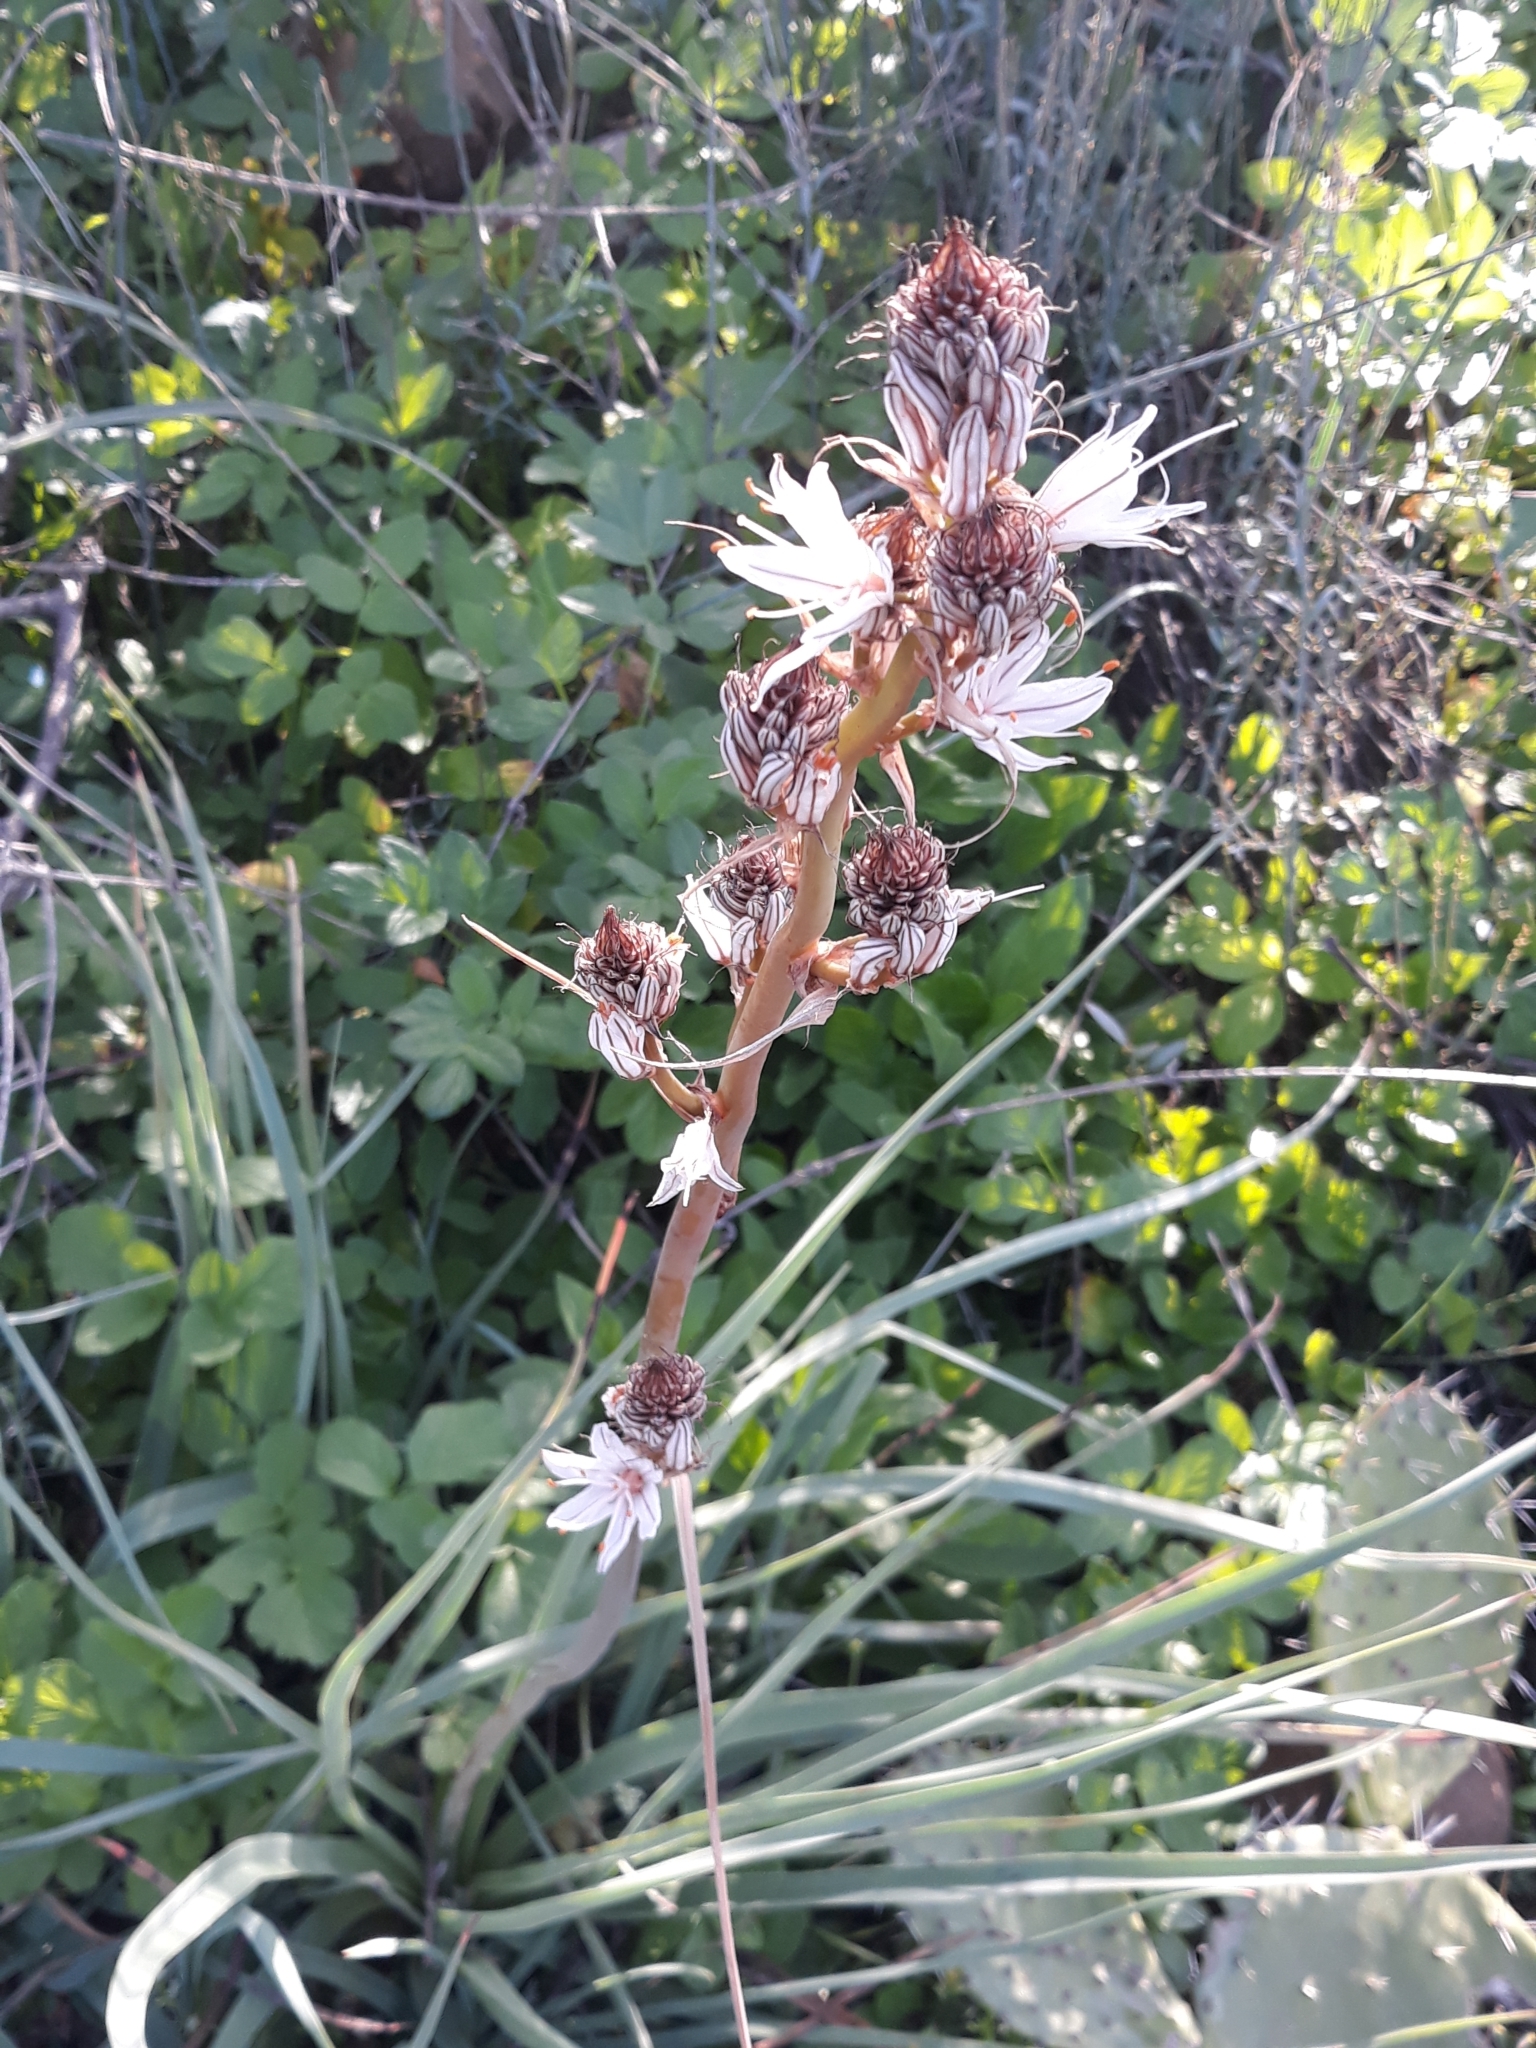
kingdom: Plantae
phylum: Tracheophyta
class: Liliopsida
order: Asparagales
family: Asphodelaceae
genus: Asphodelus
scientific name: Asphodelus ramosus
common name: Silverrod
